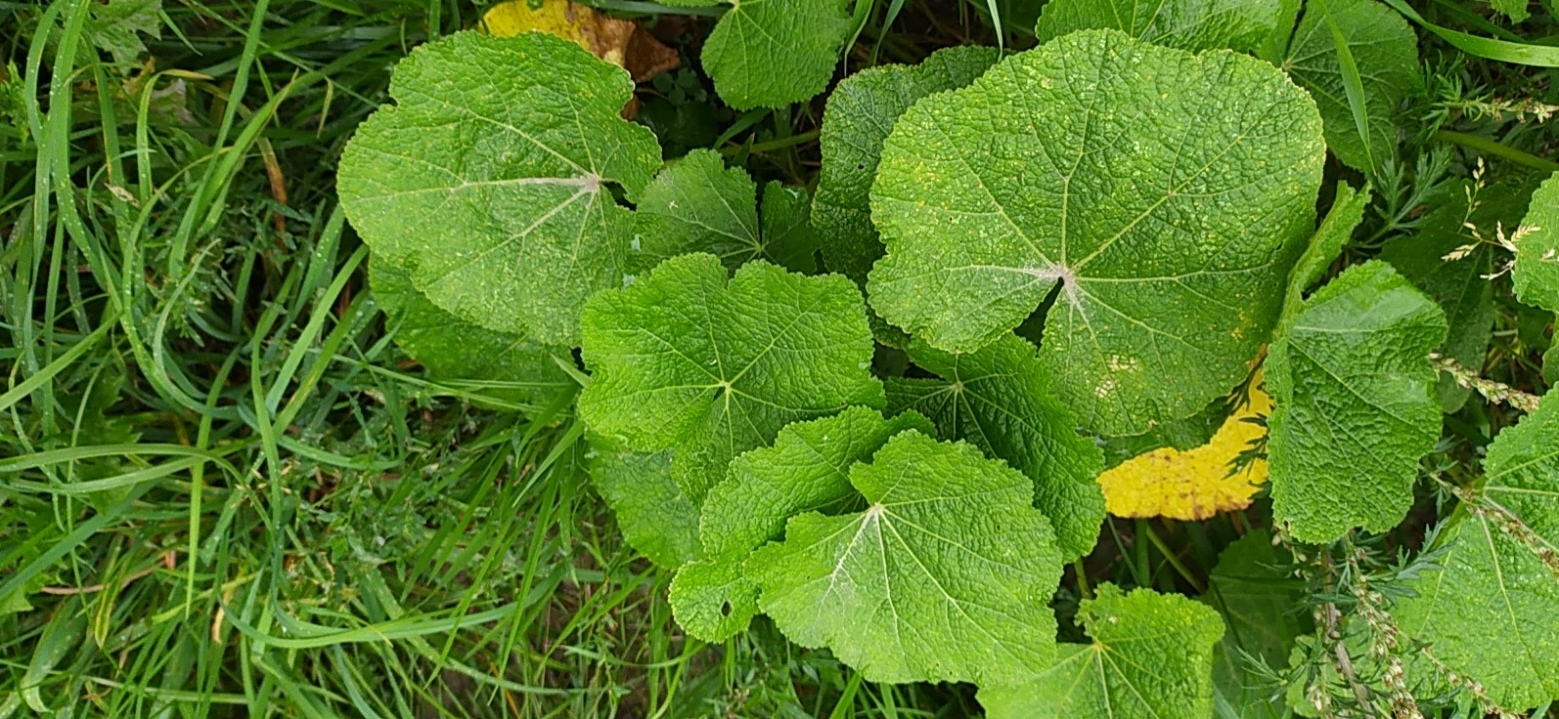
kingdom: Plantae
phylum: Tracheophyta
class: Magnoliopsida
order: Malvales
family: Malvaceae
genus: Alcea
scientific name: Alcea rosea
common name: Hollyhock
